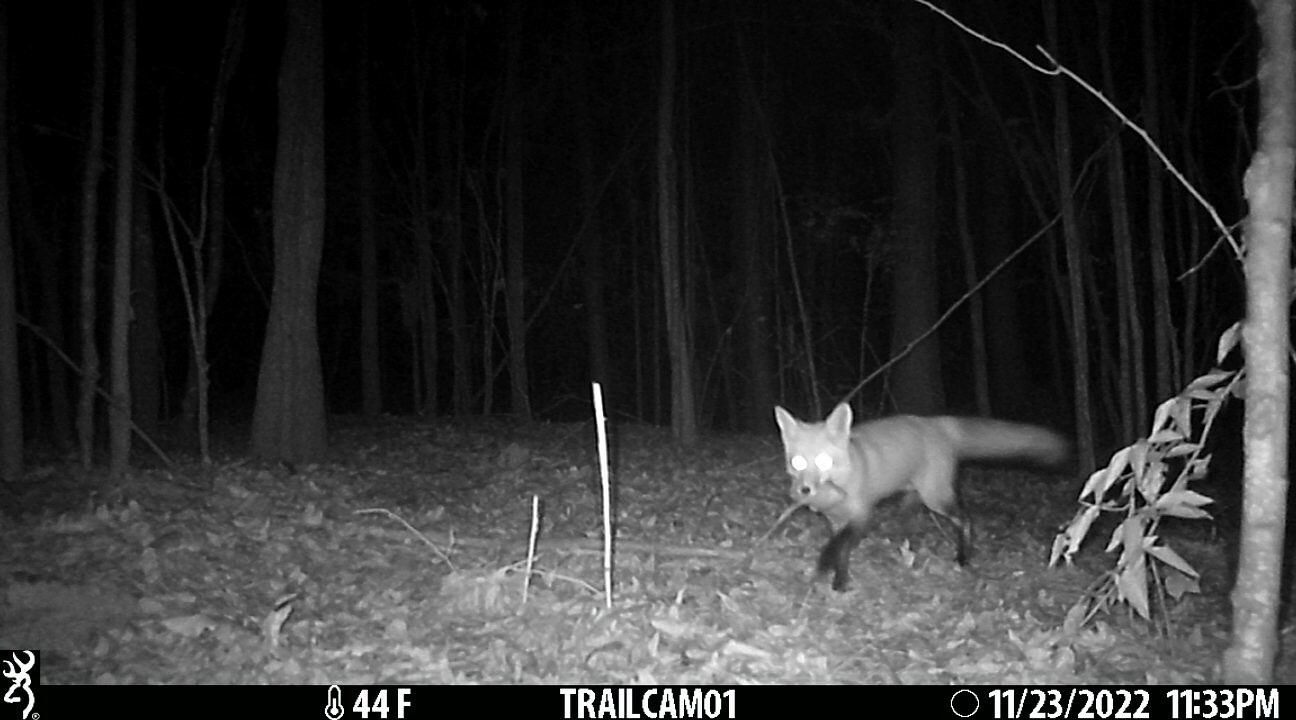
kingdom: Animalia
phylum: Chordata
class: Mammalia
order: Carnivora
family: Canidae
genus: Vulpes
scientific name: Vulpes vulpes
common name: Red fox
